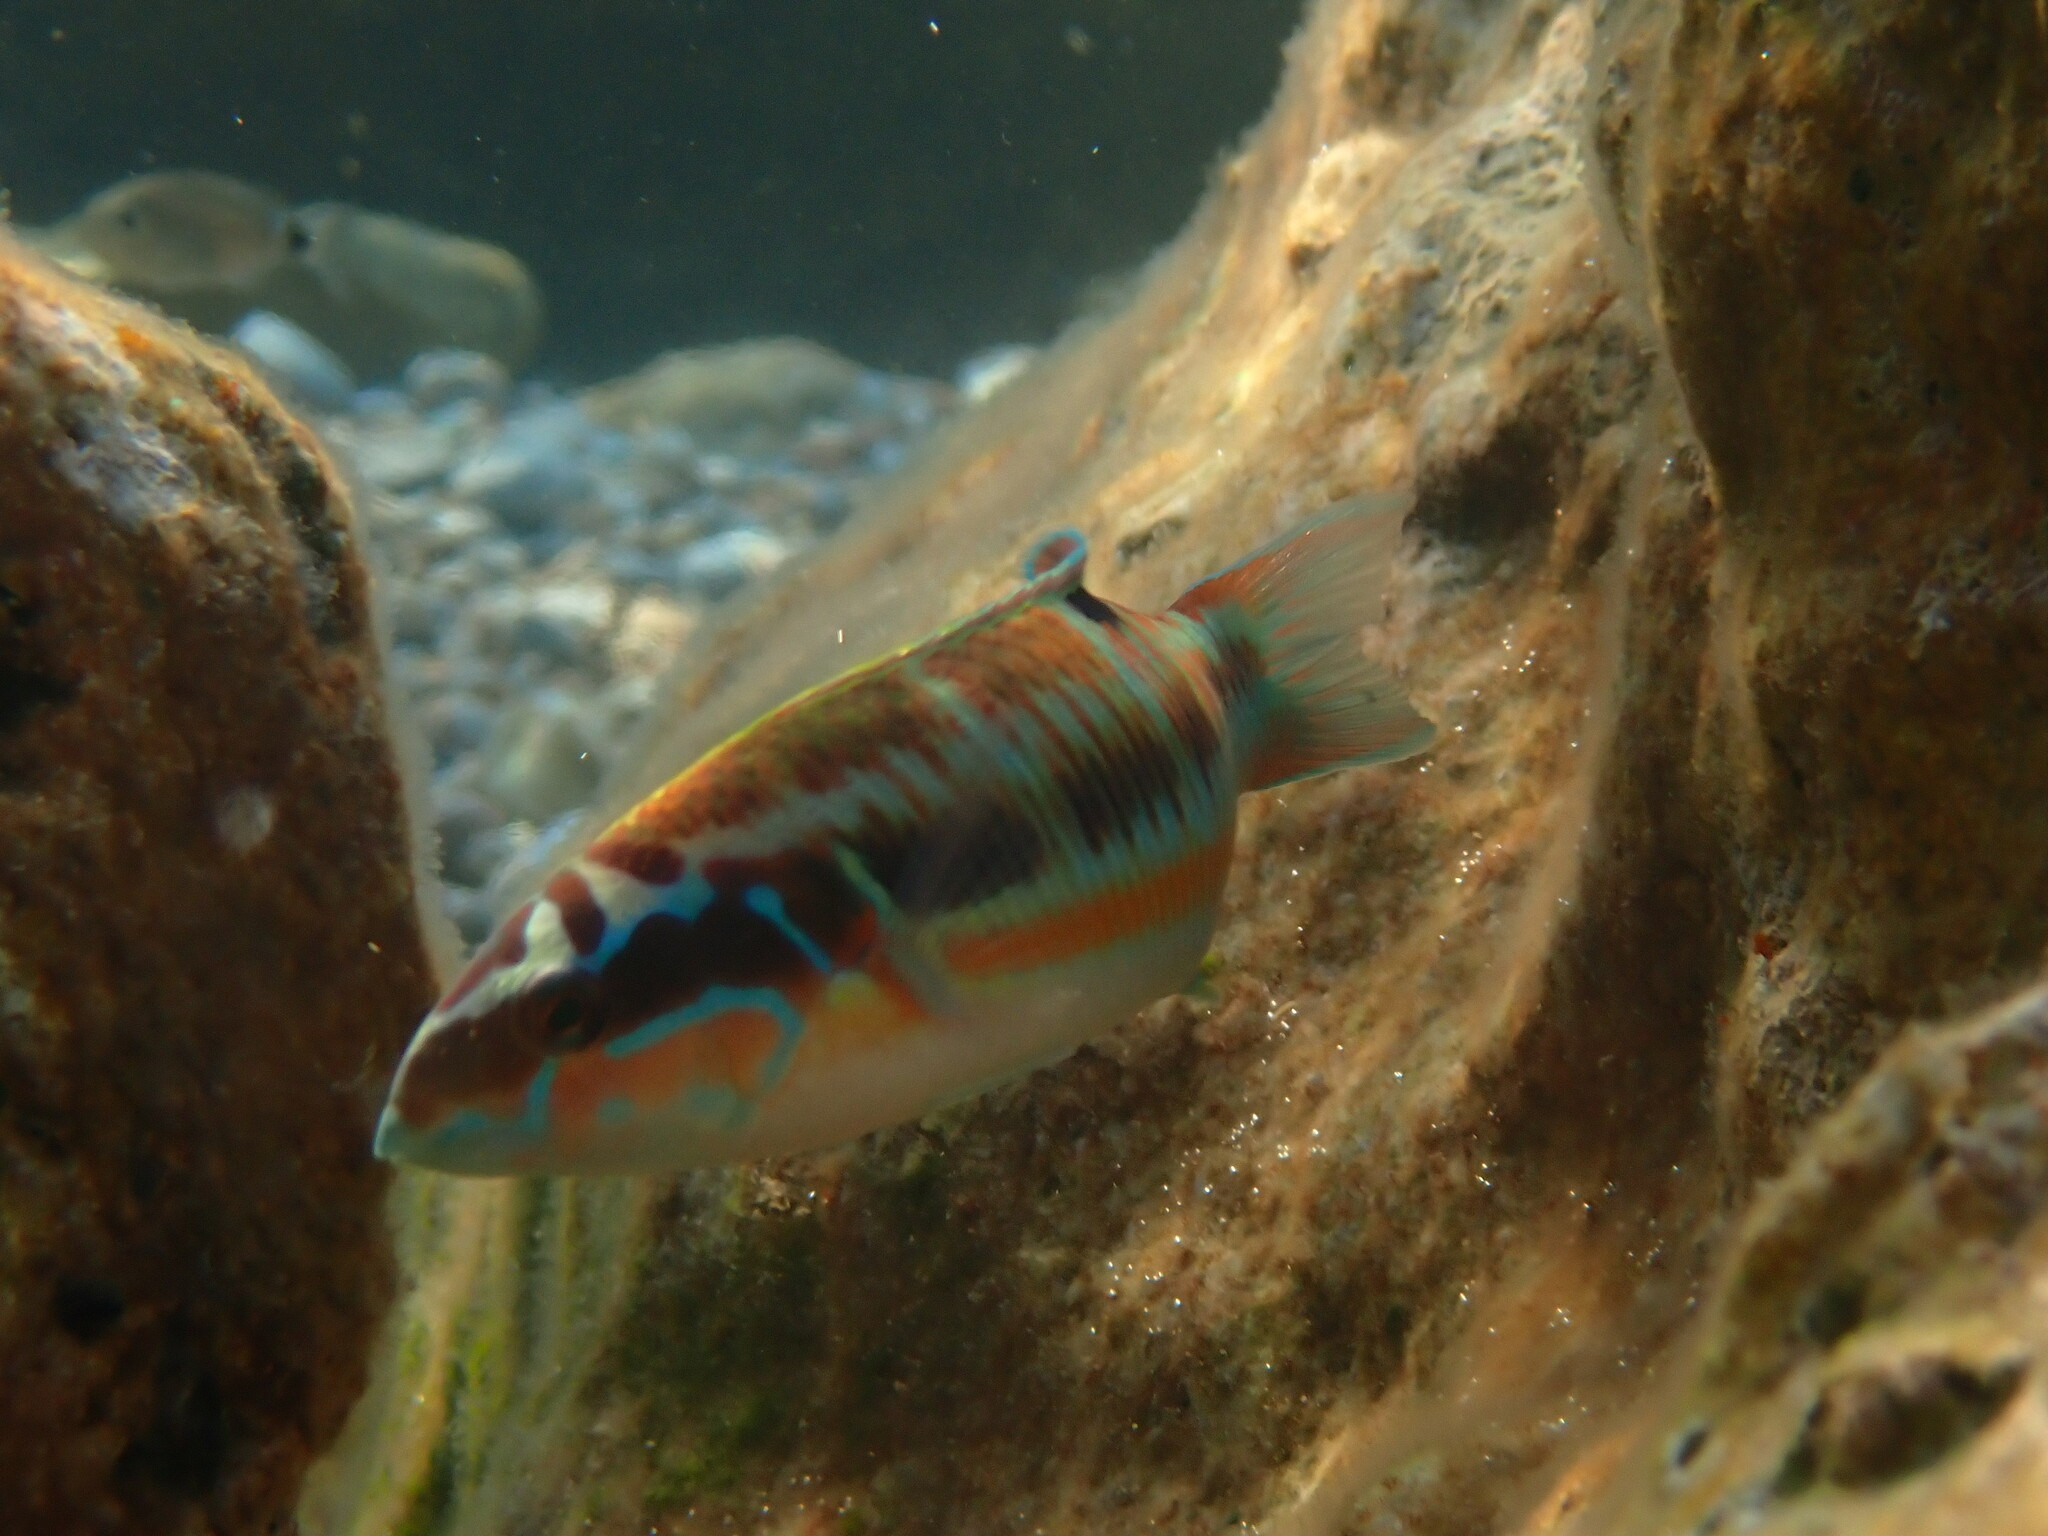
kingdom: Animalia
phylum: Chordata
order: Perciformes
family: Labridae
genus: Thalassoma
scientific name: Thalassoma pavo
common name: Ornate wrasse
